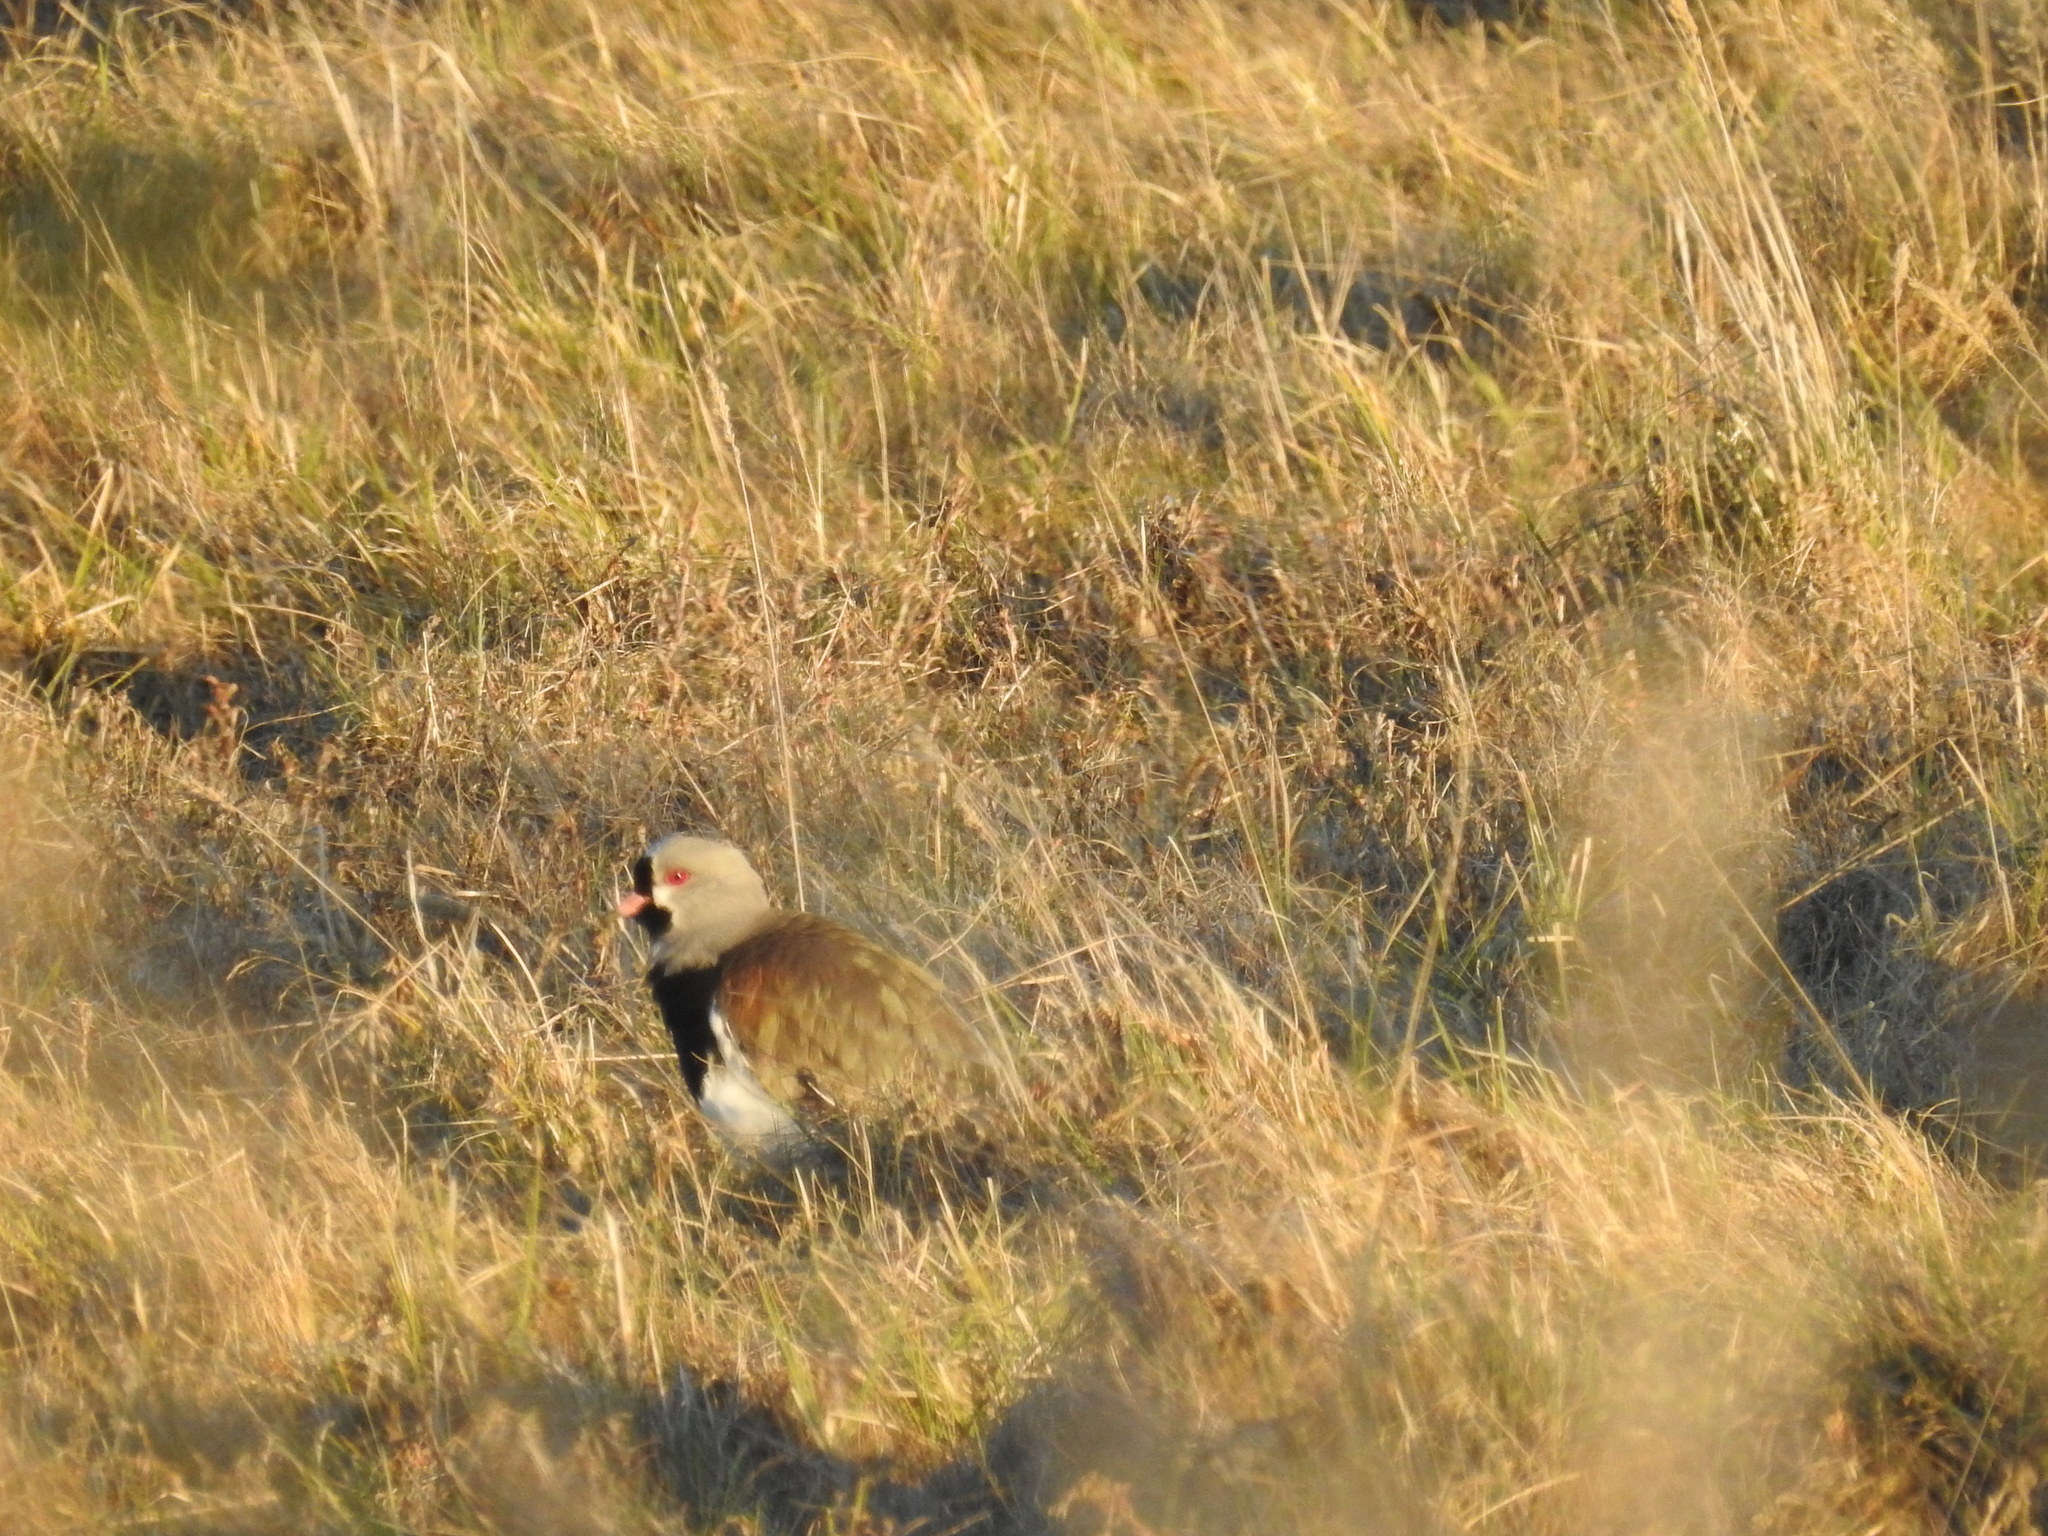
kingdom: Animalia
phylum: Chordata
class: Aves
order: Charadriiformes
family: Charadriidae
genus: Vanellus
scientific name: Vanellus chilensis
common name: Southern lapwing
